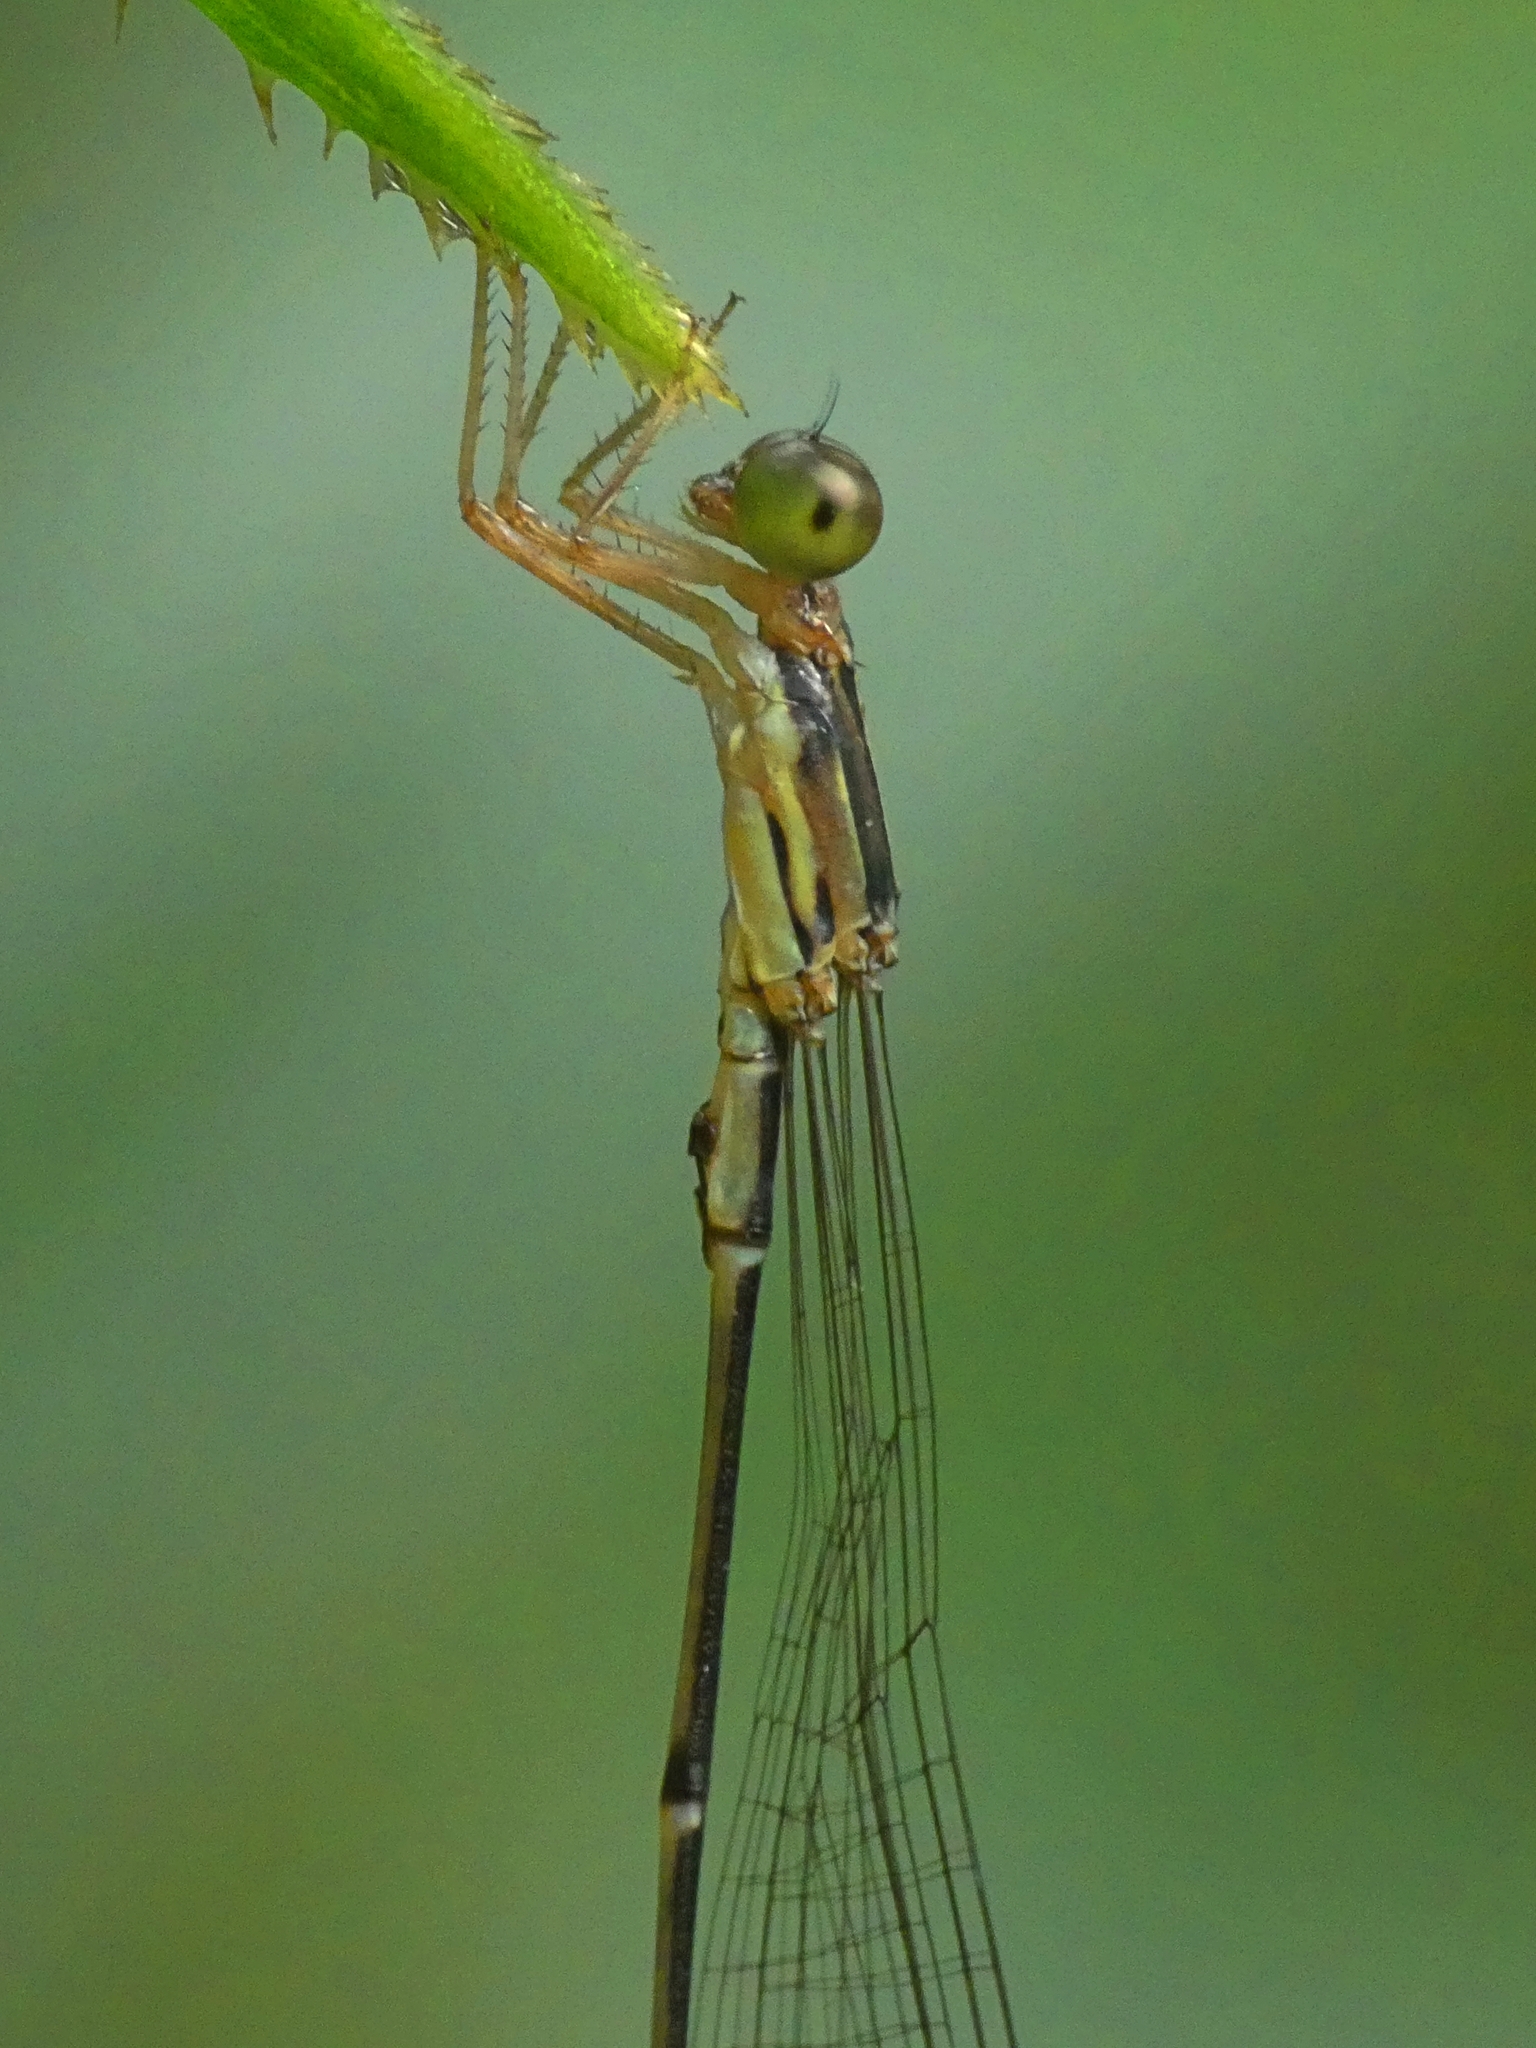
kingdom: Animalia
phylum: Arthropoda
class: Insecta
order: Odonata
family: Isostictidae
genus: Oristicta
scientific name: Oristicta filicicola
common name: Slender wiretail
